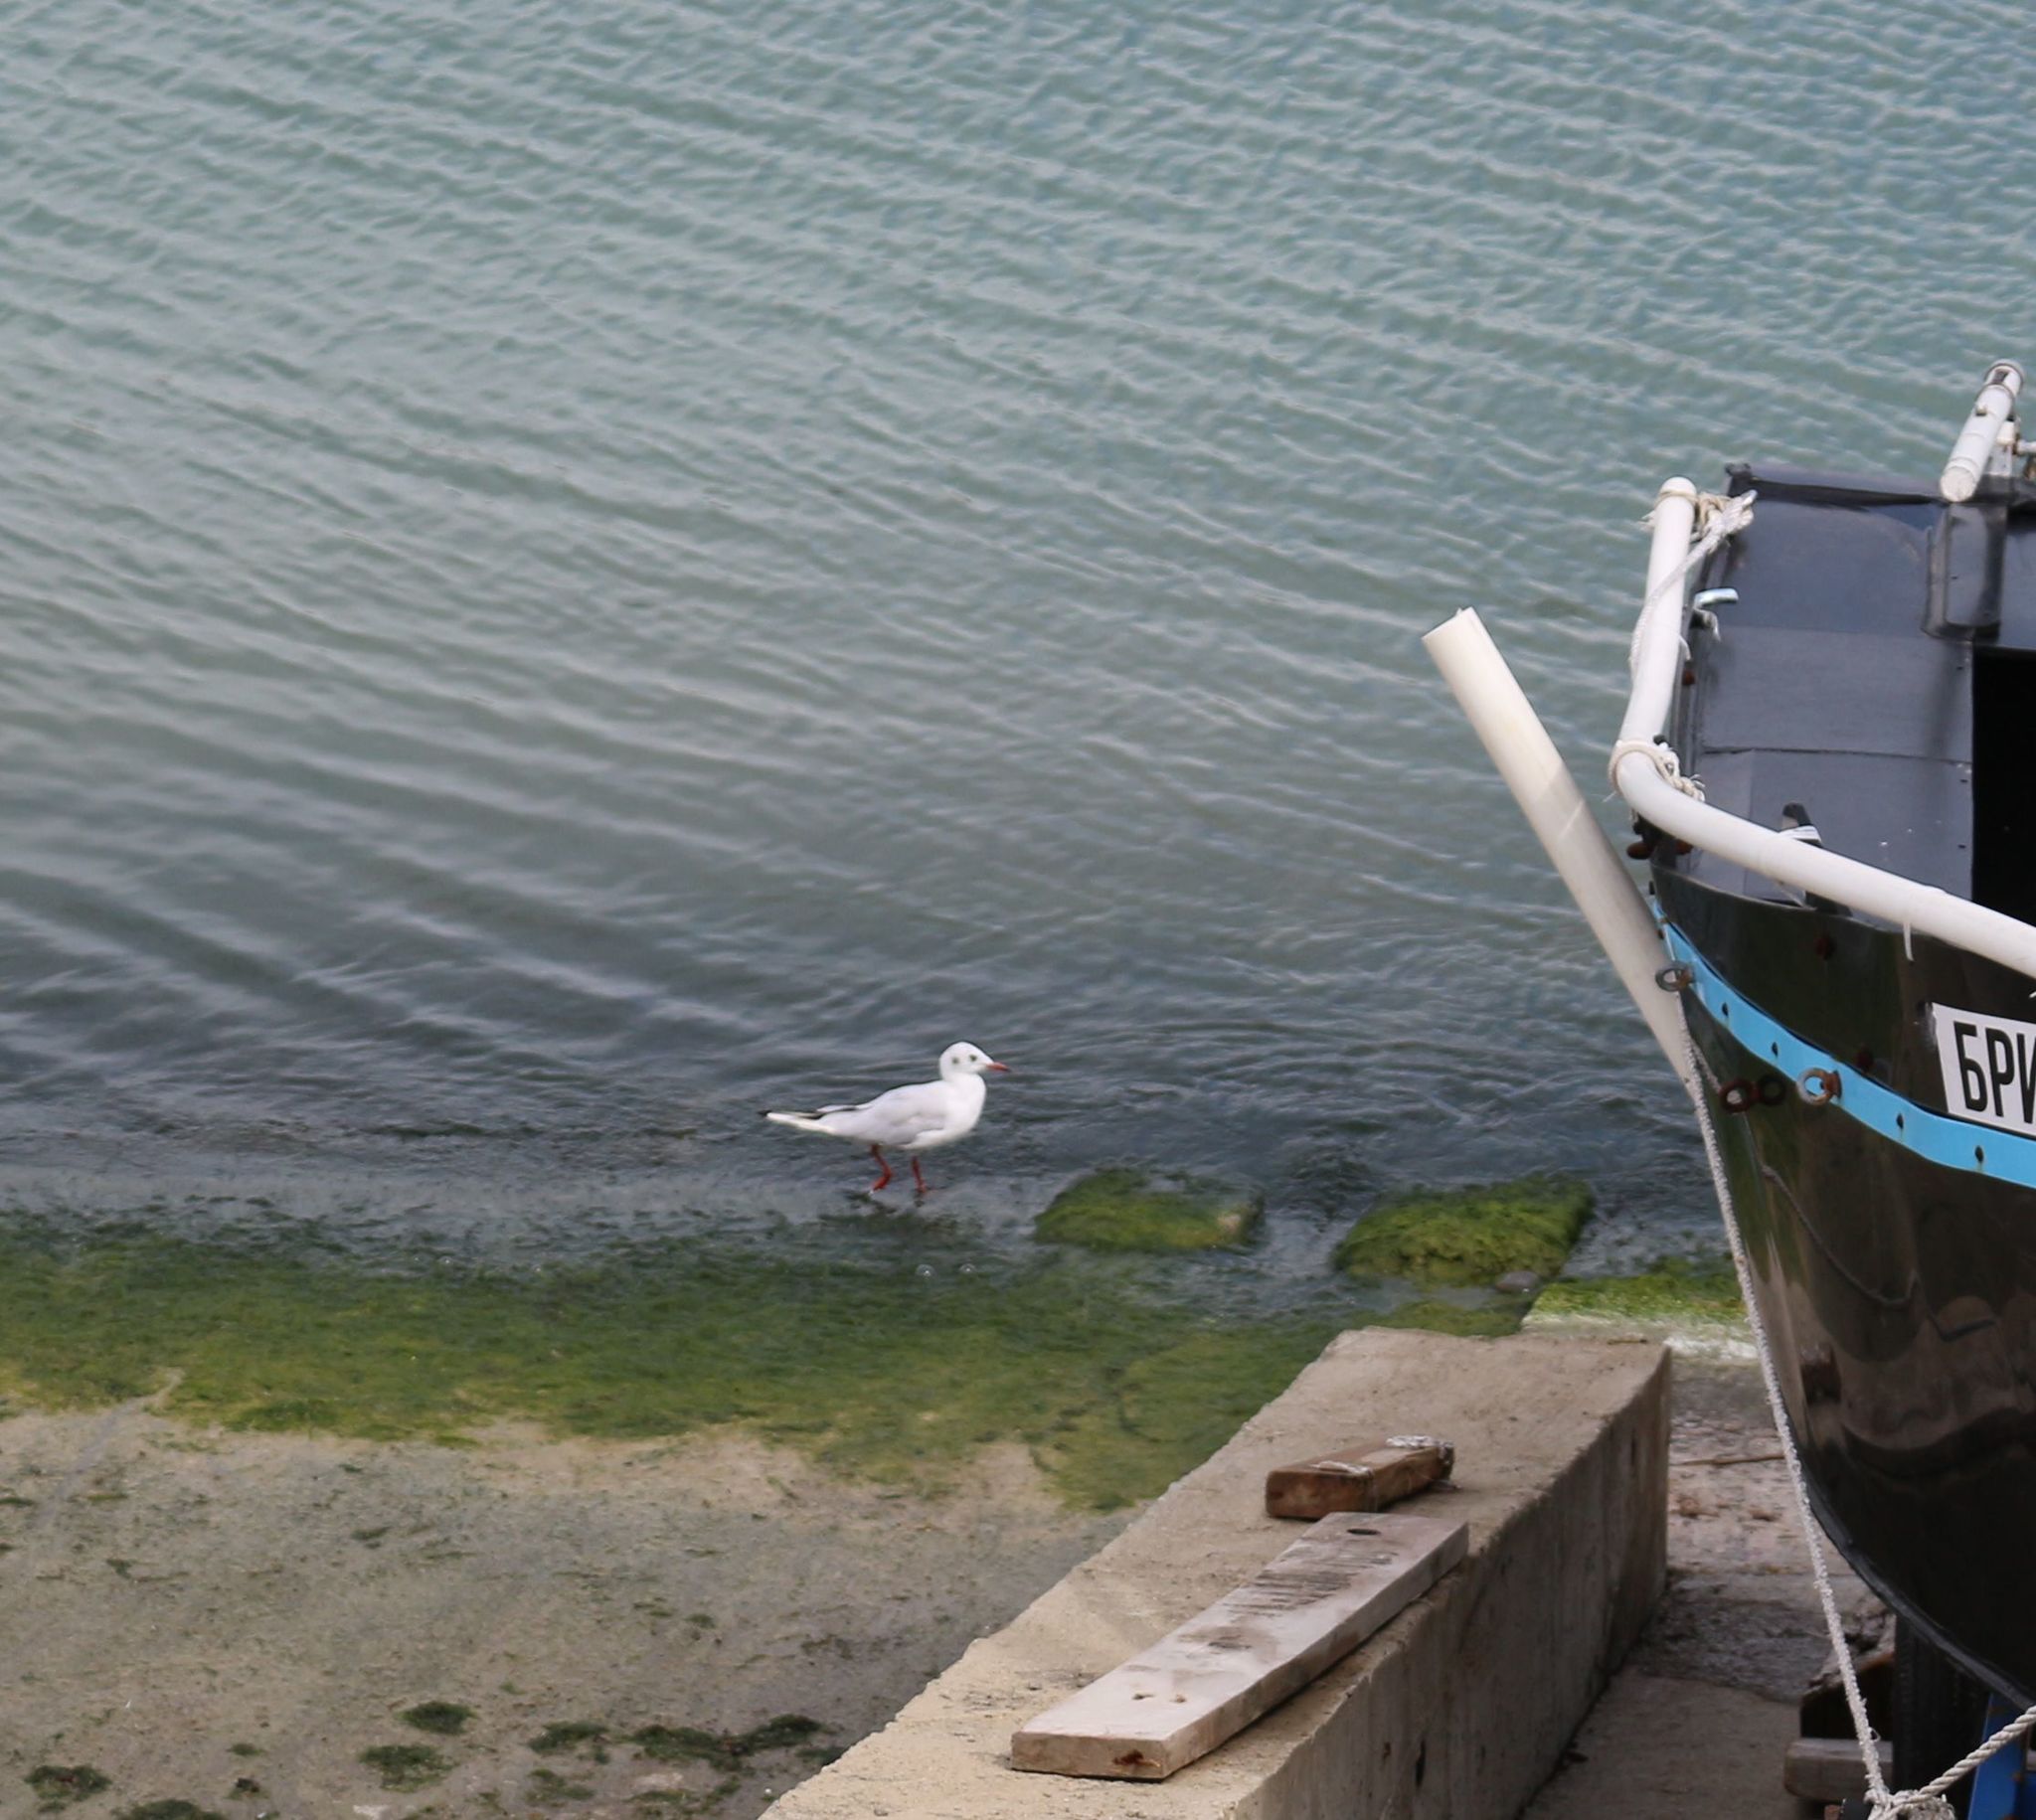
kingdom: Animalia
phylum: Chordata
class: Aves
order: Charadriiformes
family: Laridae
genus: Chroicocephalus
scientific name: Chroicocephalus ridibundus
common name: Black-headed gull
